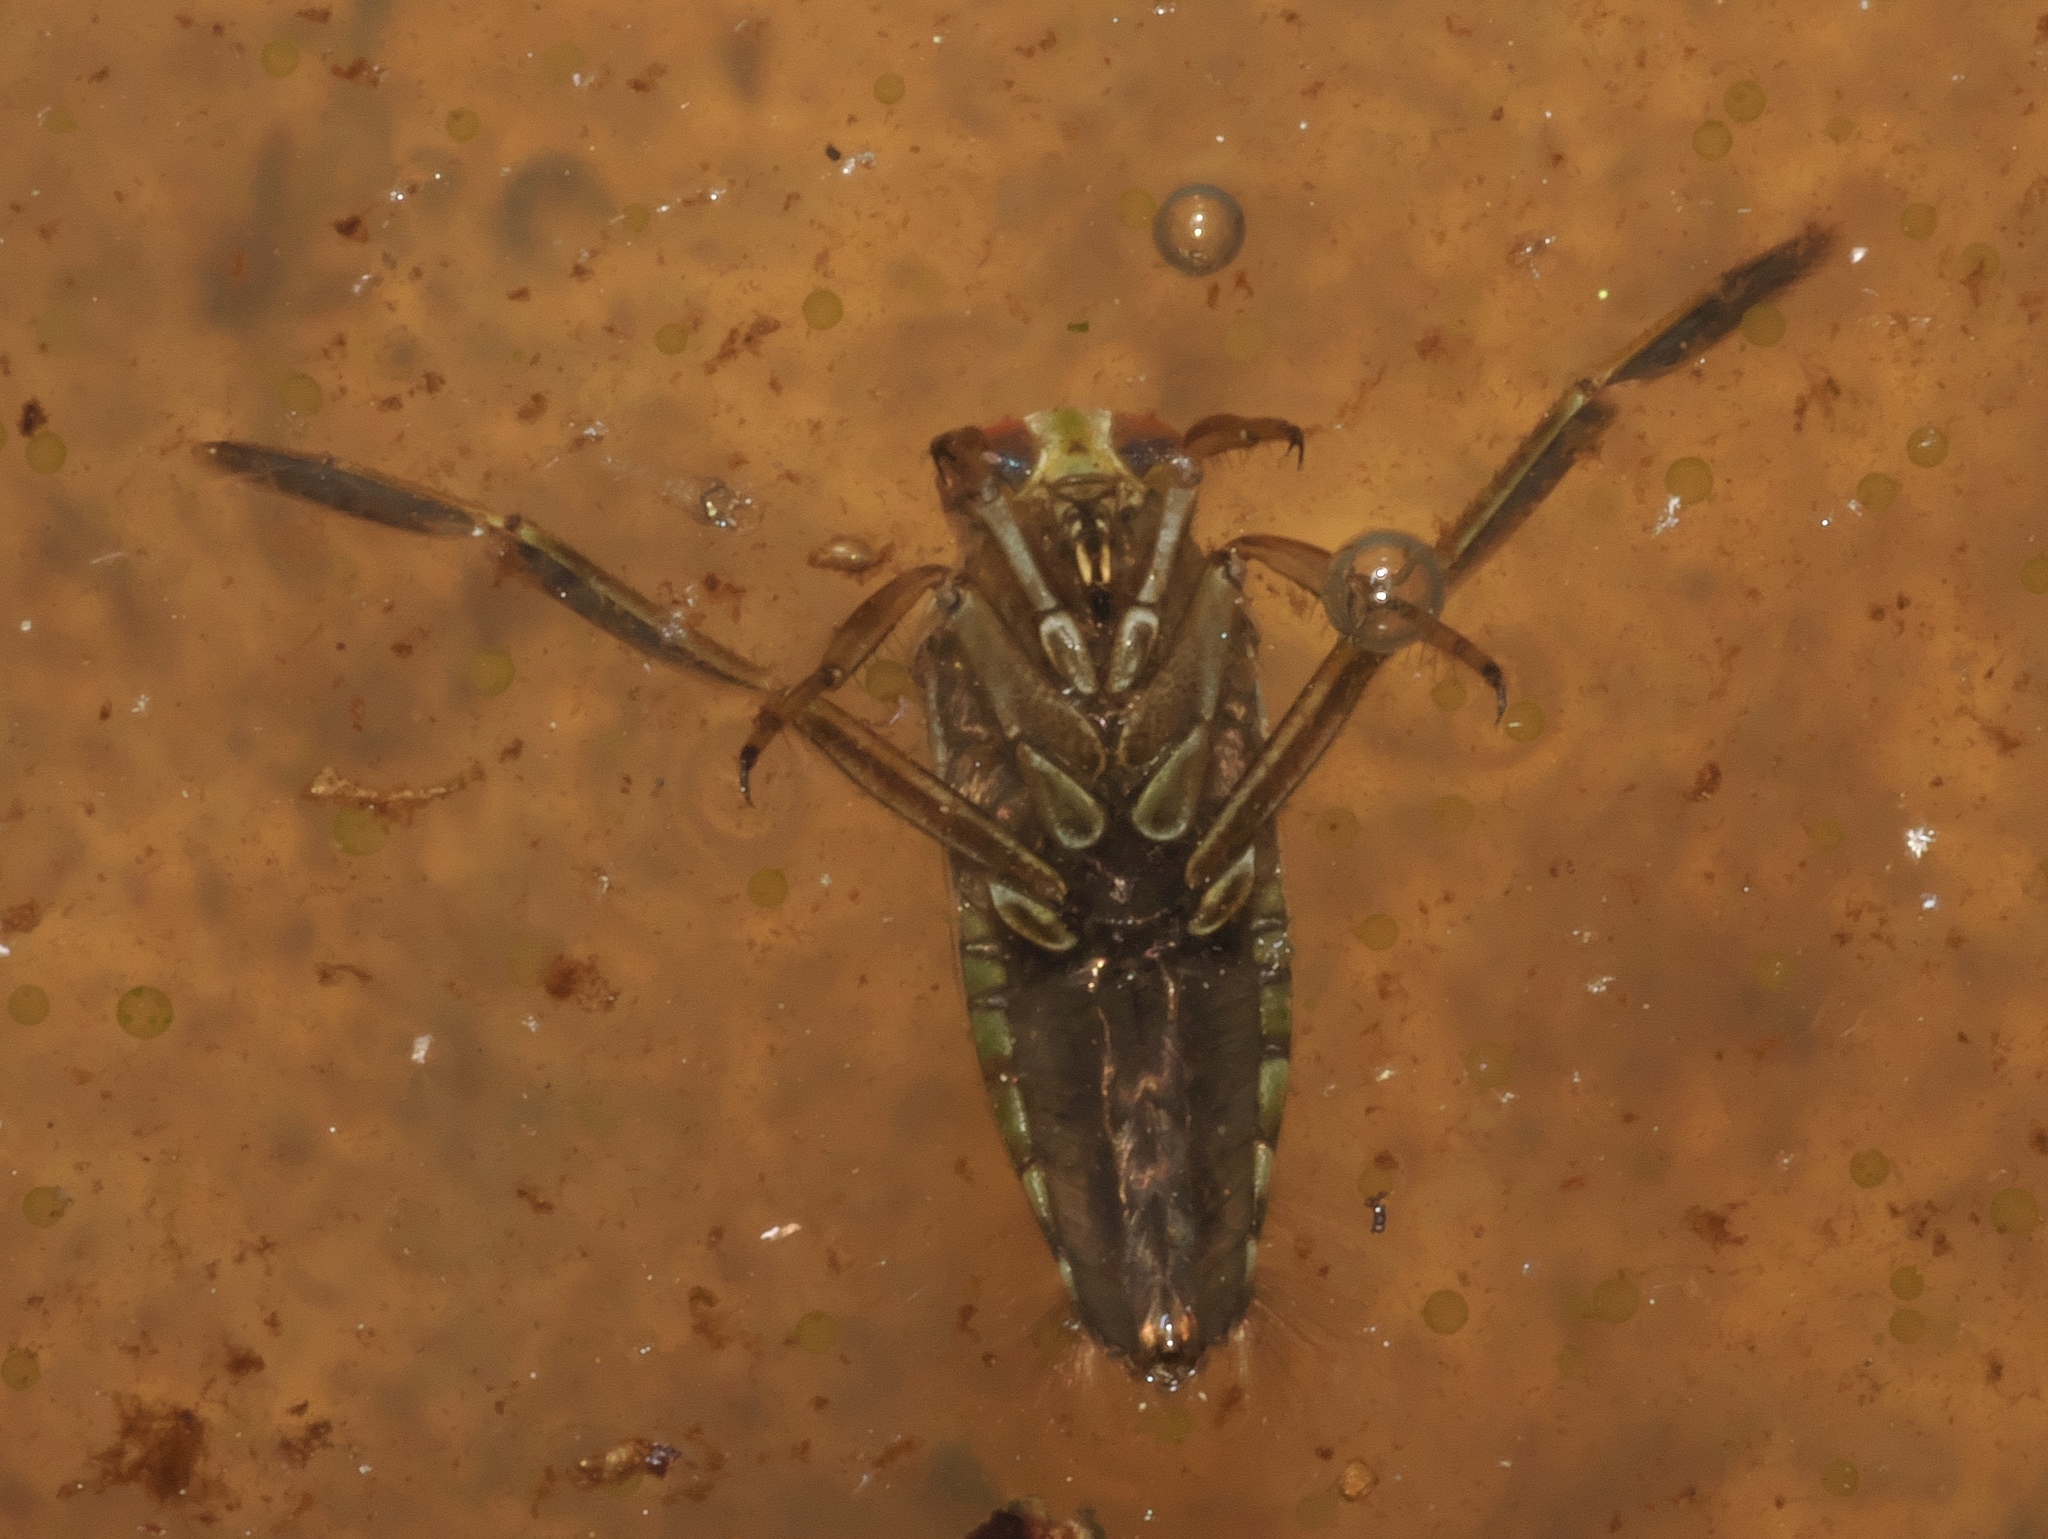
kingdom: Animalia
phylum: Arthropoda
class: Insecta
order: Hemiptera
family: Notonectidae
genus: Notonecta
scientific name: Notonecta
